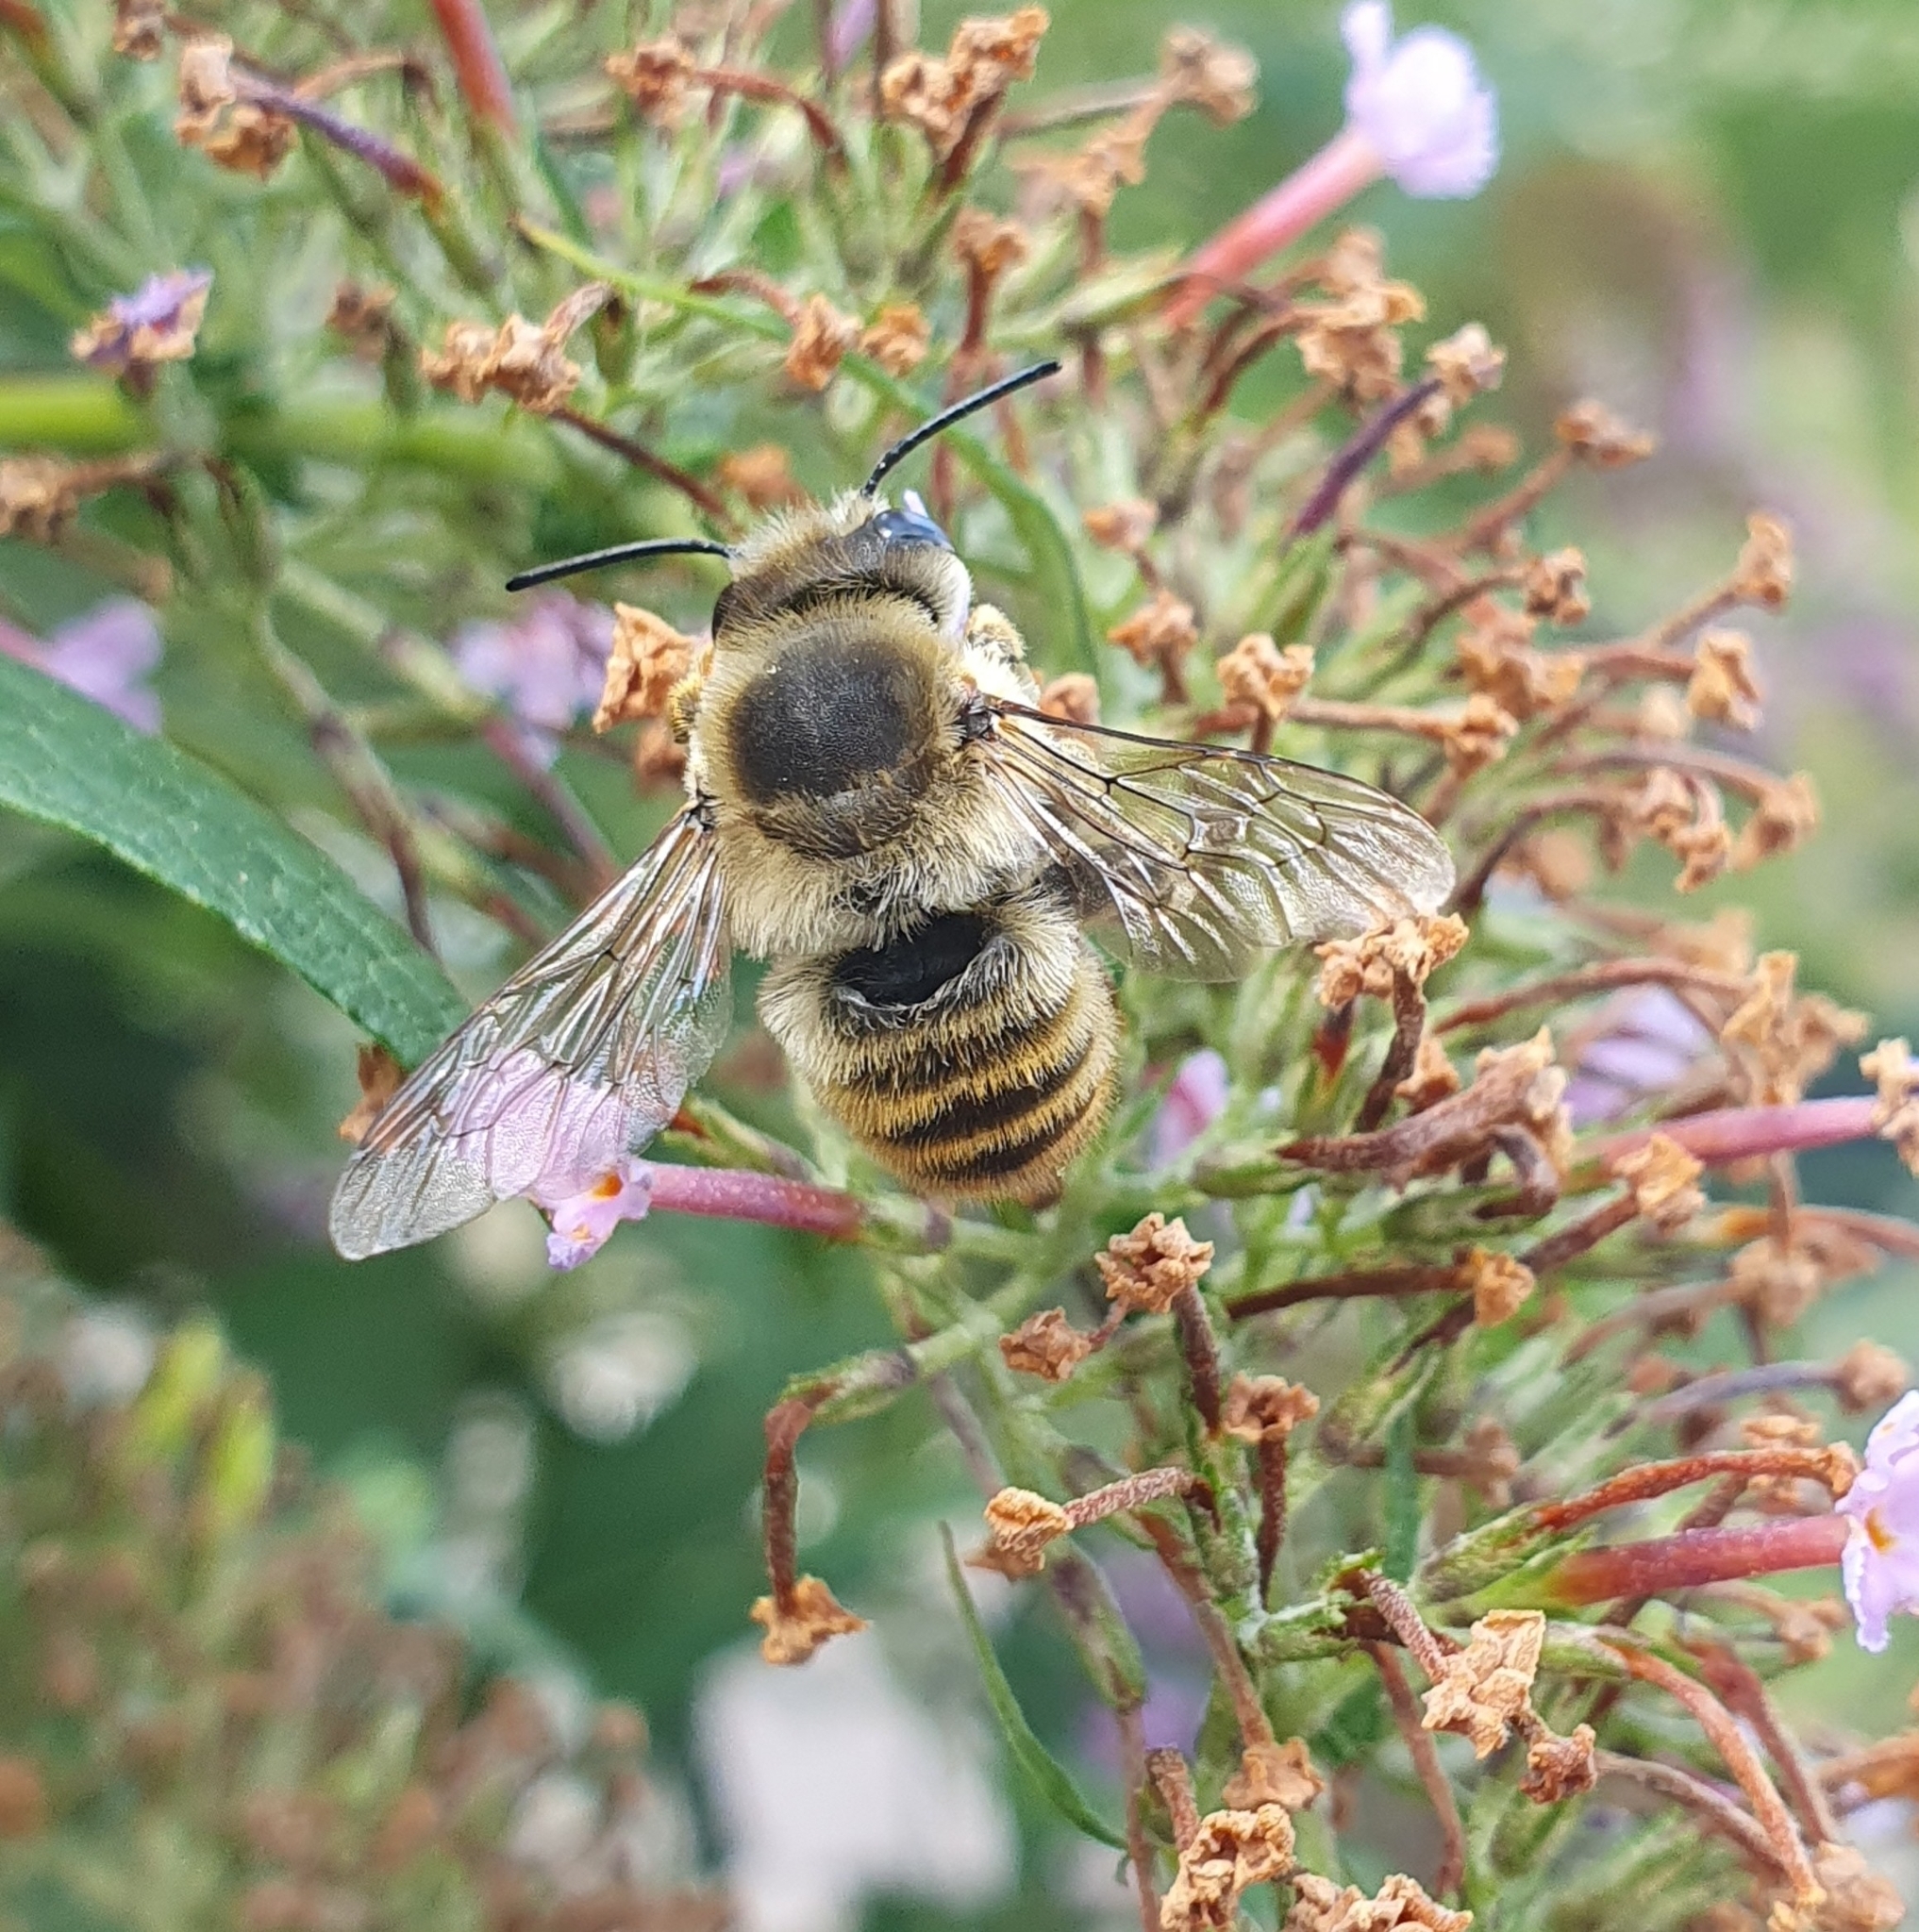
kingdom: Animalia
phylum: Arthropoda
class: Insecta
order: Hymenoptera
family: Megachilidae
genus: Megachile
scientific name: Megachile lagopoda
